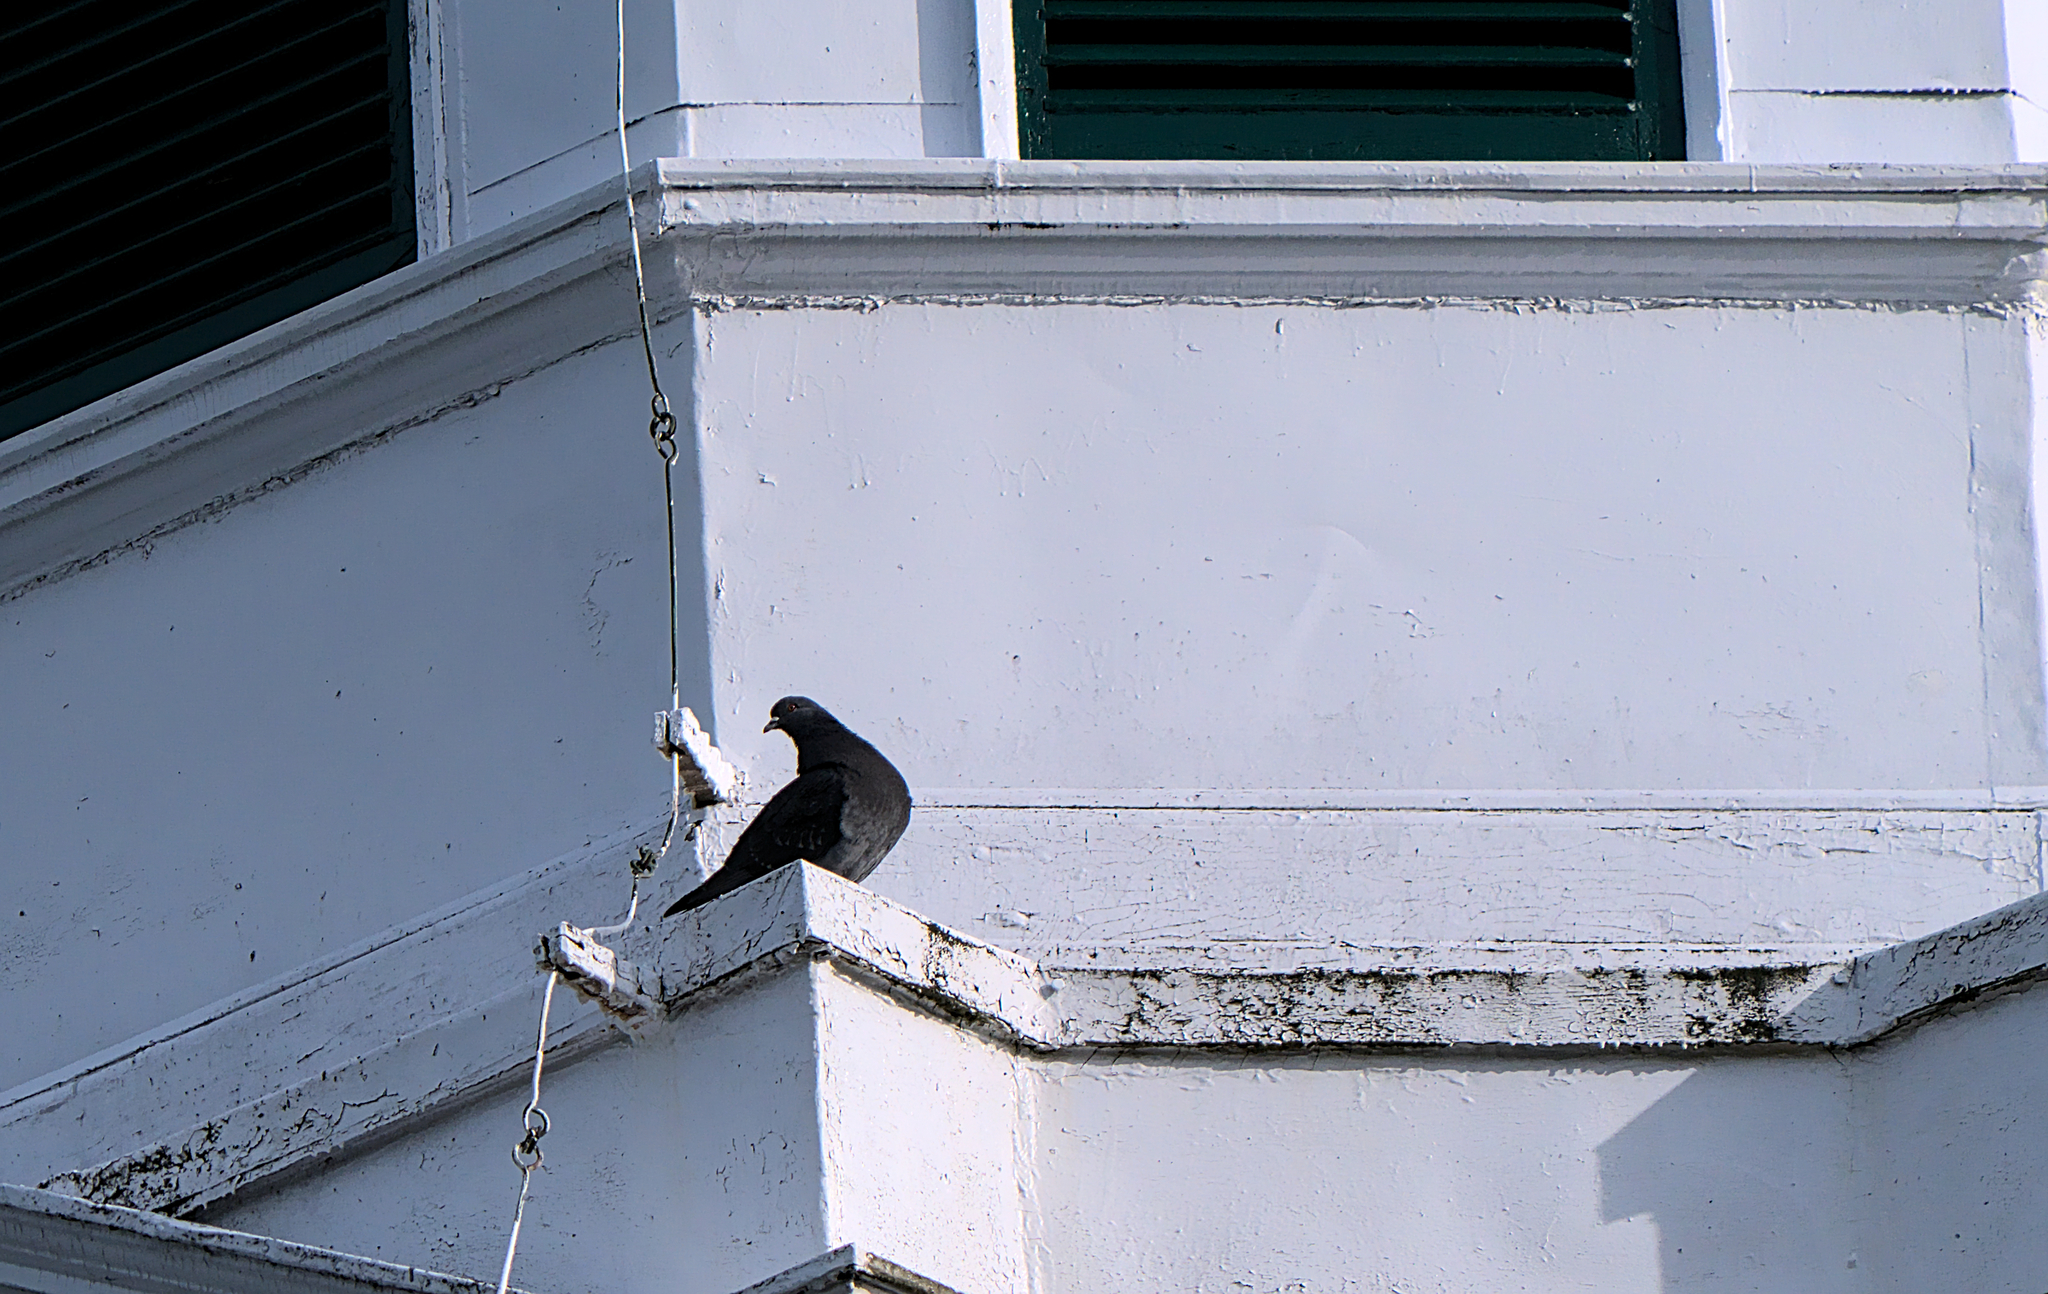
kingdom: Animalia
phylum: Chordata
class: Aves
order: Columbiformes
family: Columbidae
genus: Columba
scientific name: Columba livia
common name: Rock pigeon
